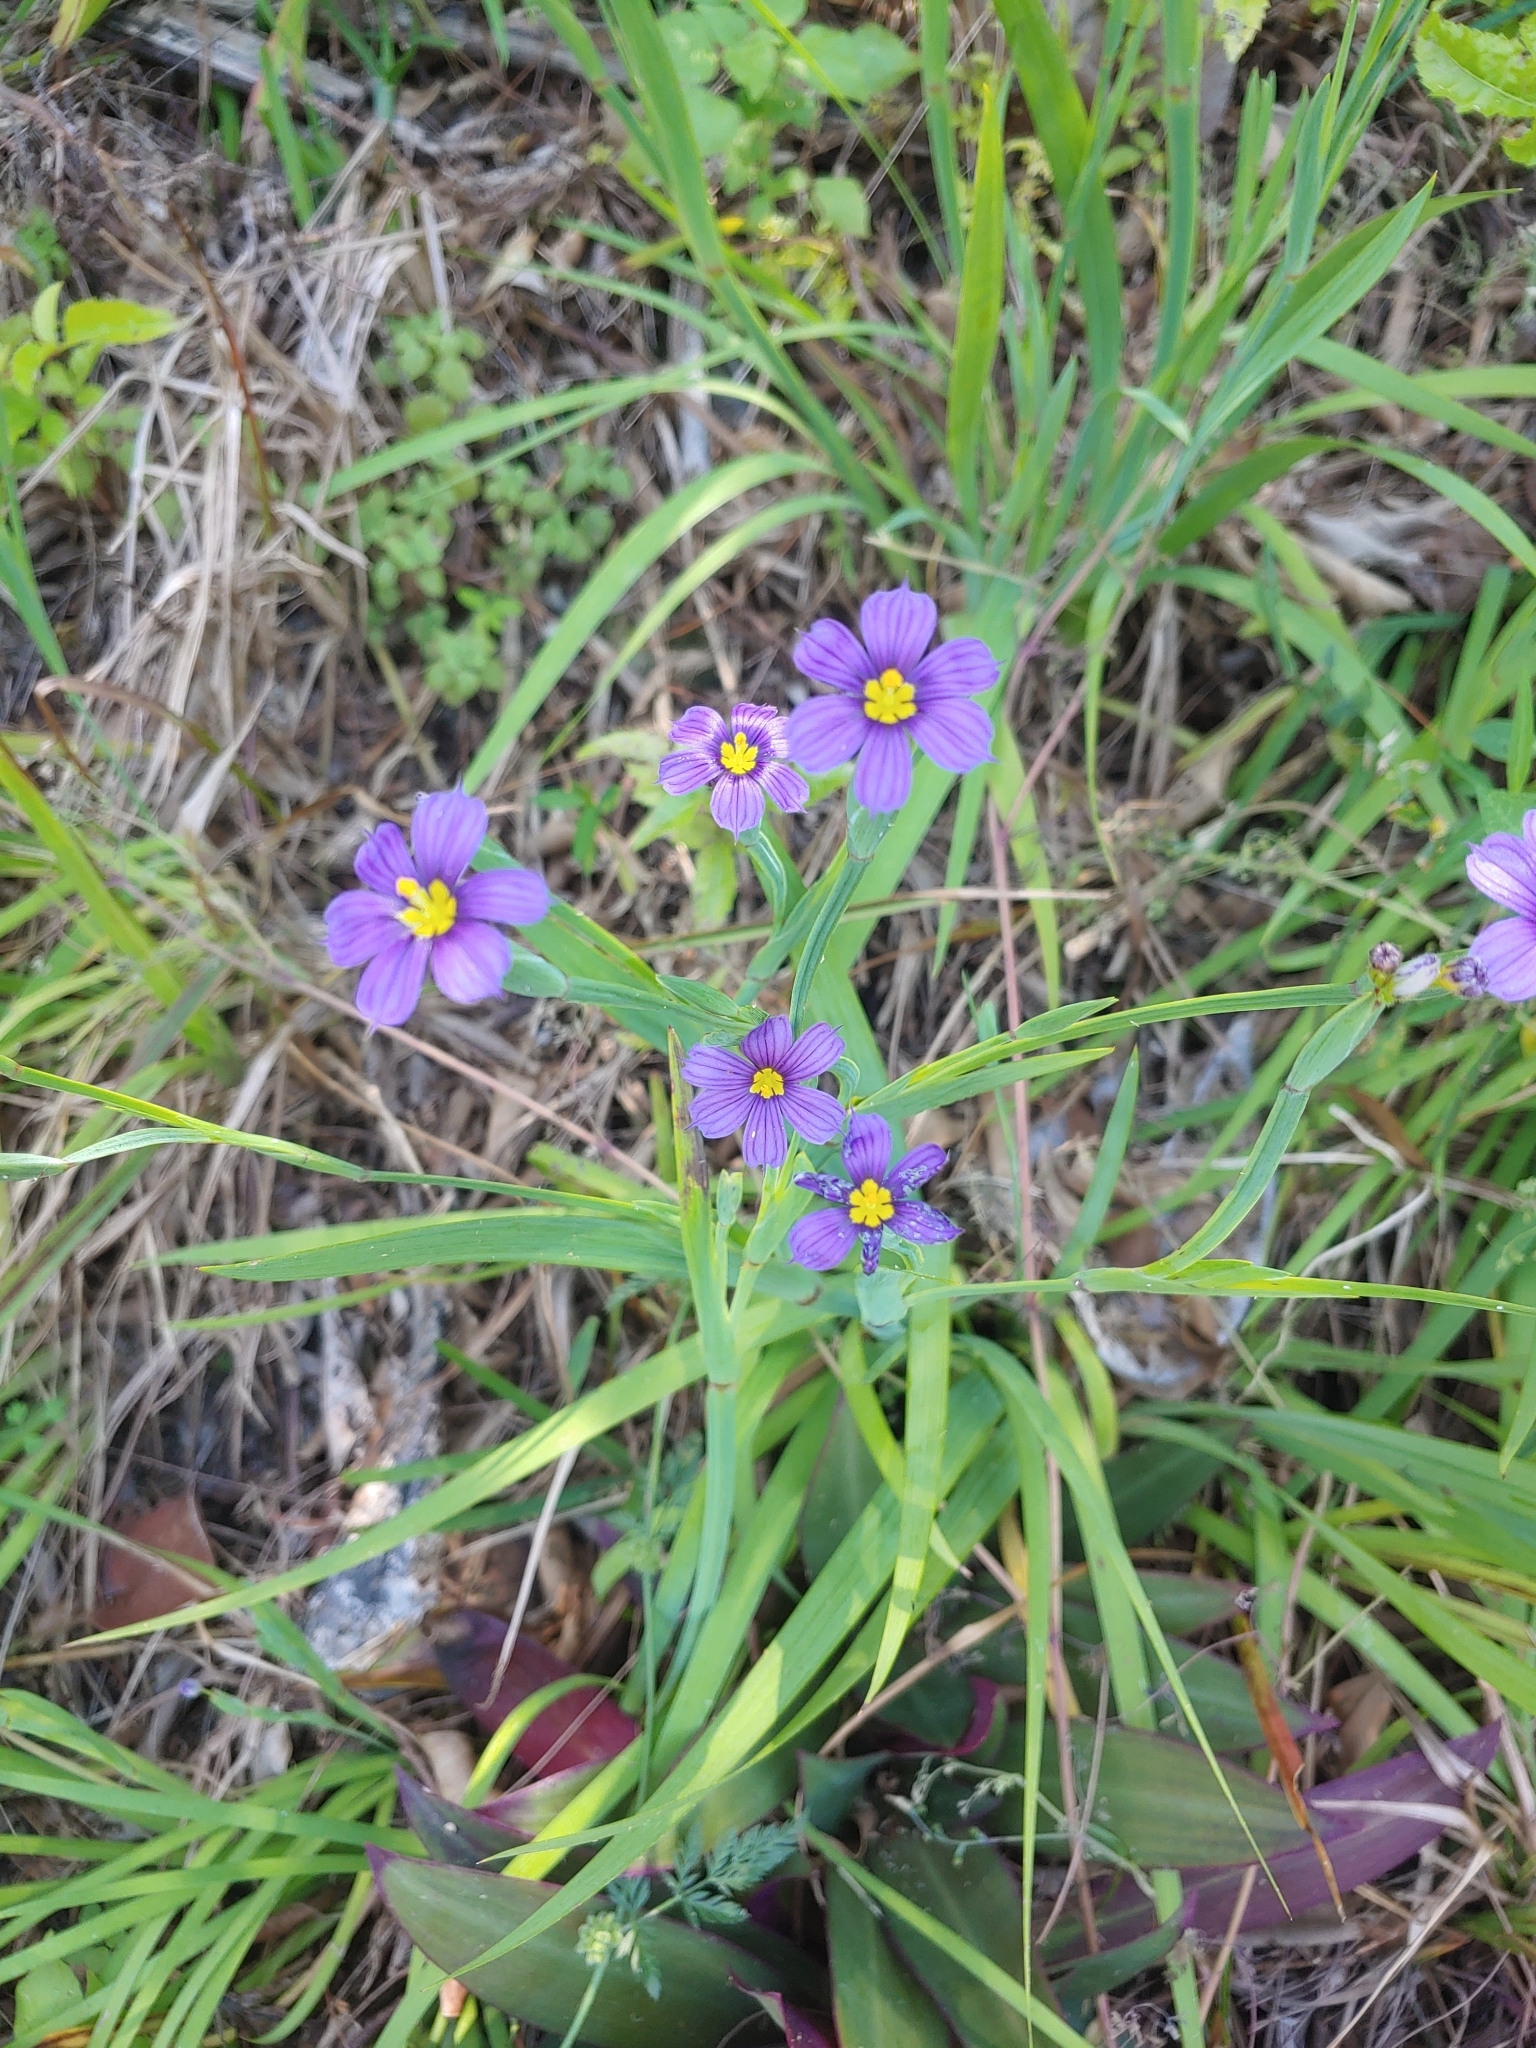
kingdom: Plantae
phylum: Tracheophyta
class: Liliopsida
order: Asparagales
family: Iridaceae
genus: Sisyrinchium
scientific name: Sisyrinchium bermudiana
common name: Blue-eyed-grass
